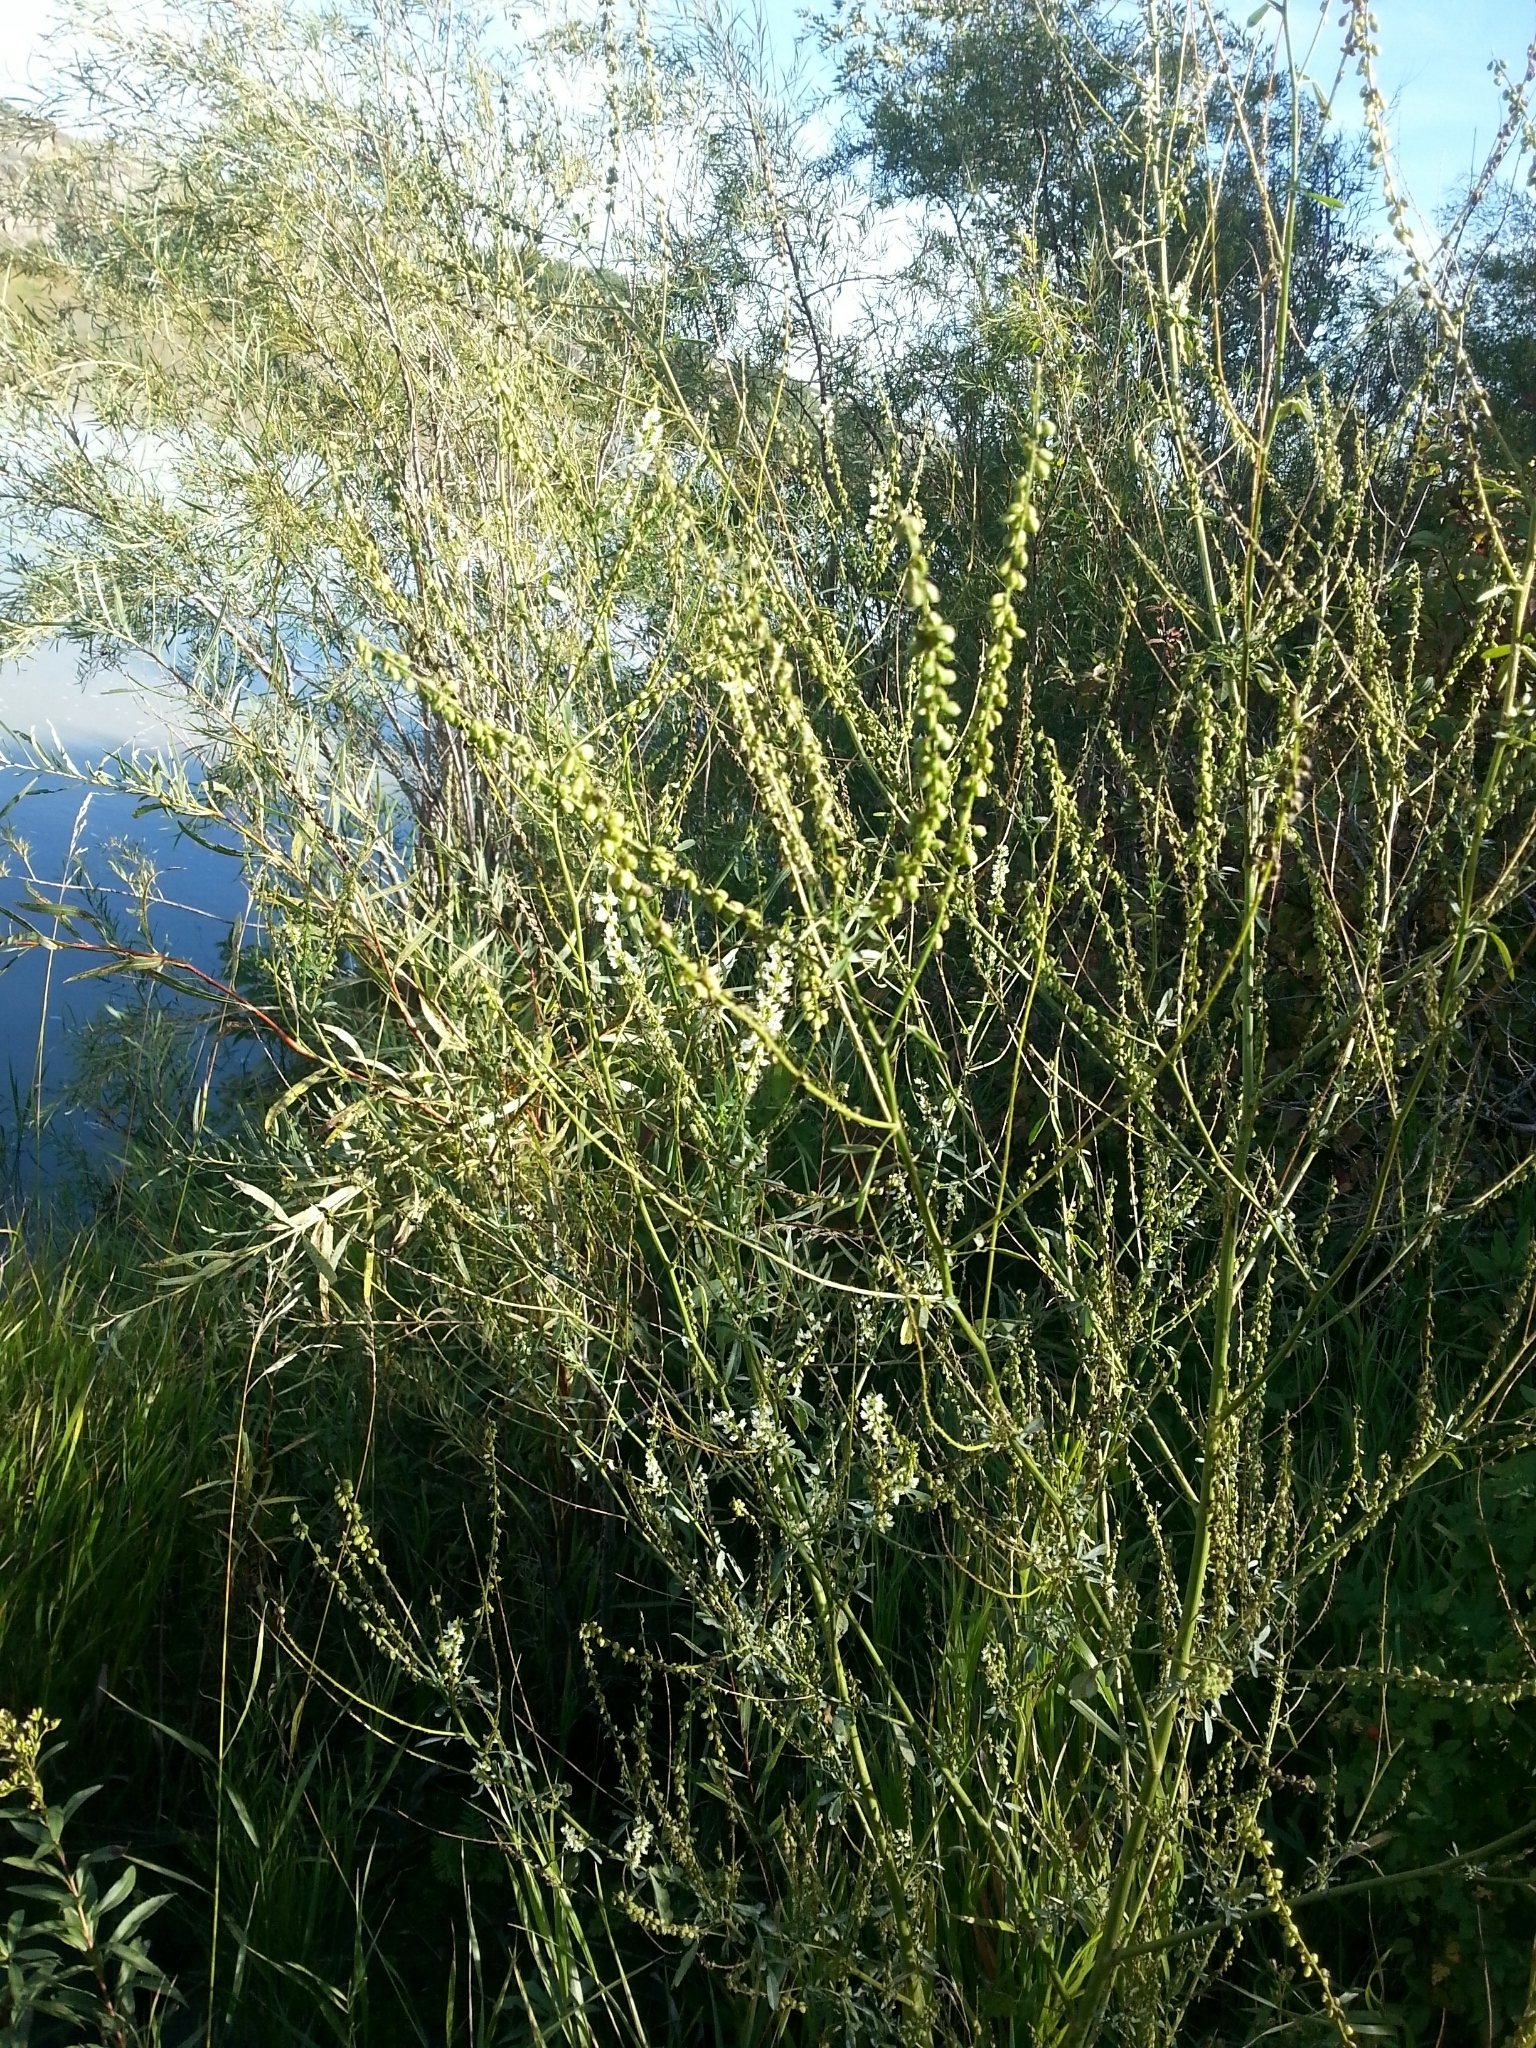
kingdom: Plantae
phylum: Tracheophyta
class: Magnoliopsida
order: Fabales
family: Fabaceae
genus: Melilotus
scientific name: Melilotus albus
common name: White melilot
